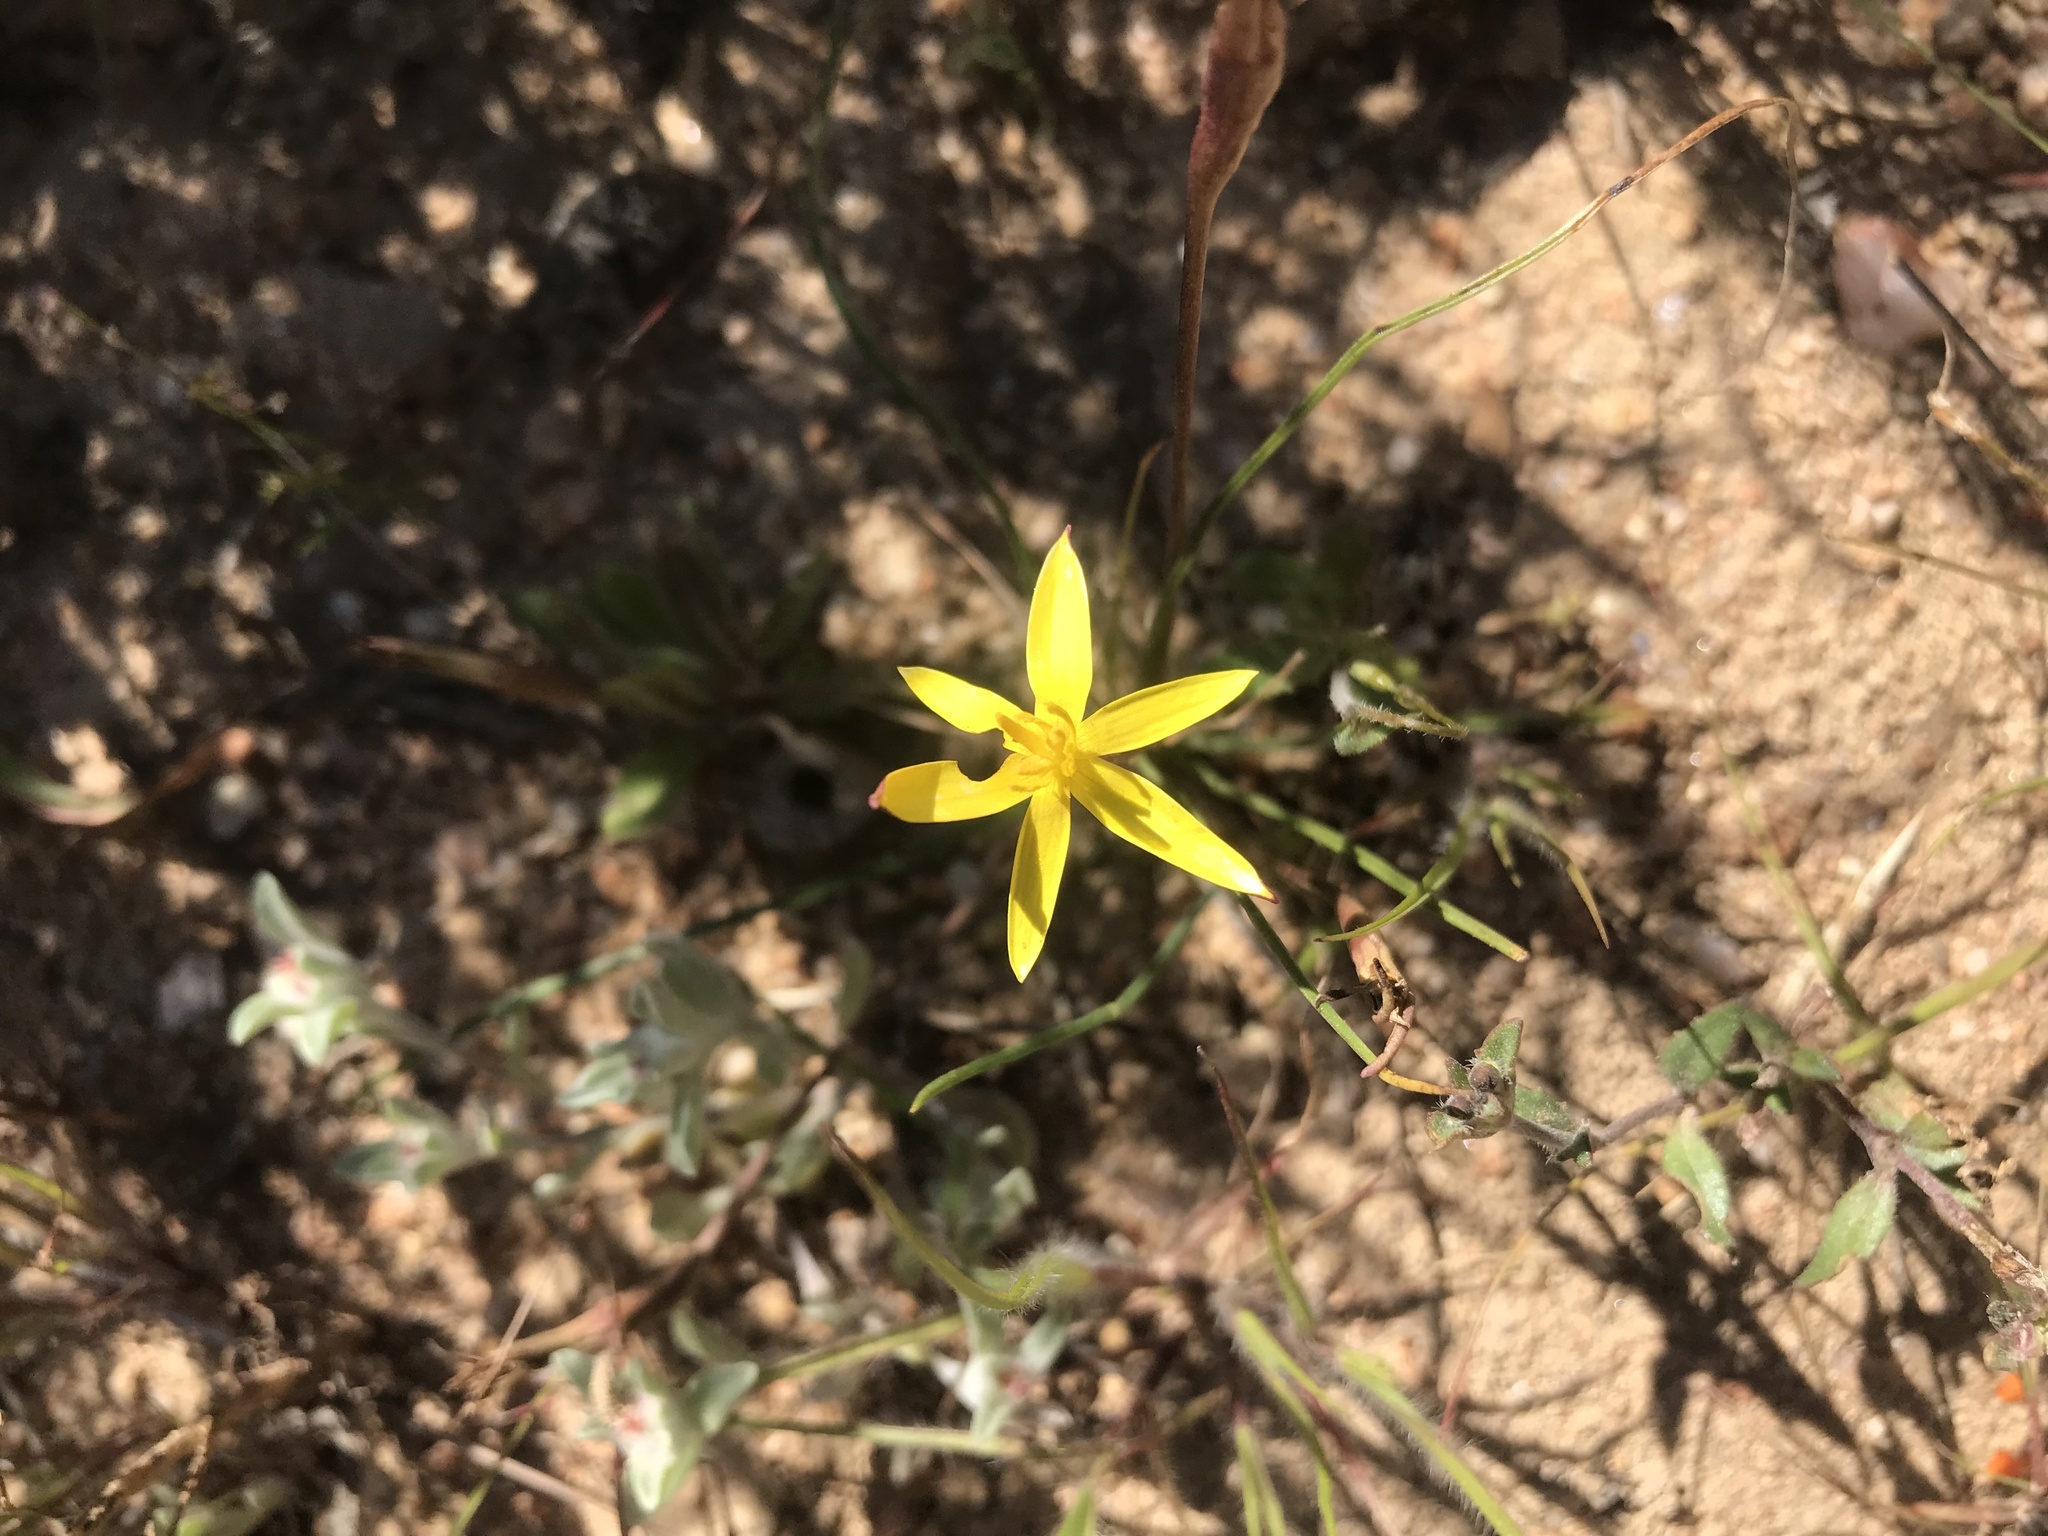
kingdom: Plantae
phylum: Tracheophyta
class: Liliopsida
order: Asparagales
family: Hypoxidaceae
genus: Pauridia
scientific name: Pauridia serrata
